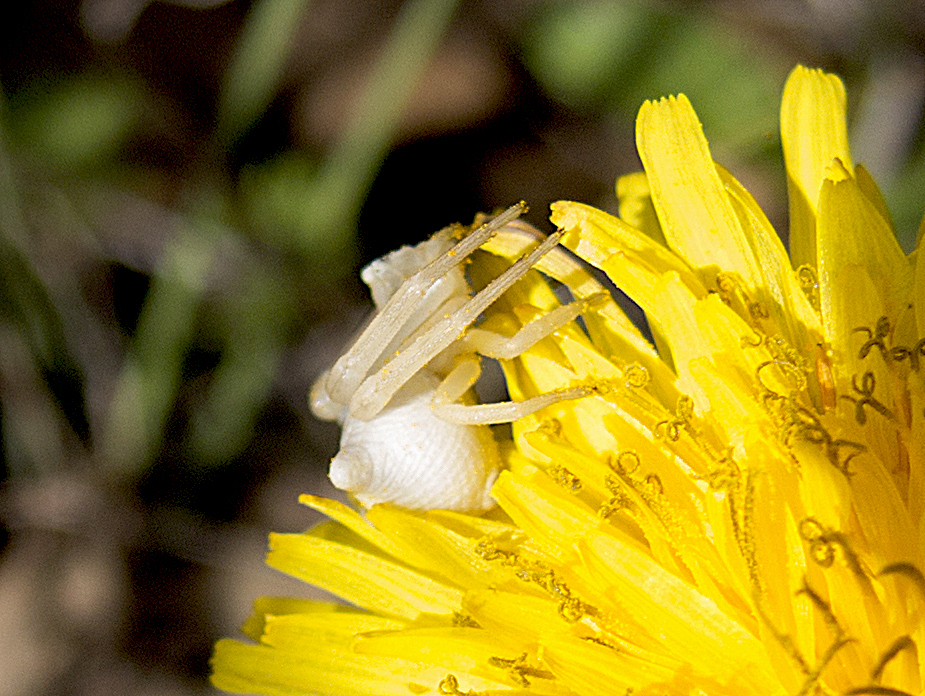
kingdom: Animalia
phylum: Arthropoda
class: Arachnida
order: Araneae
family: Thomisidae
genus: Thomisus
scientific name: Thomisus onustus
